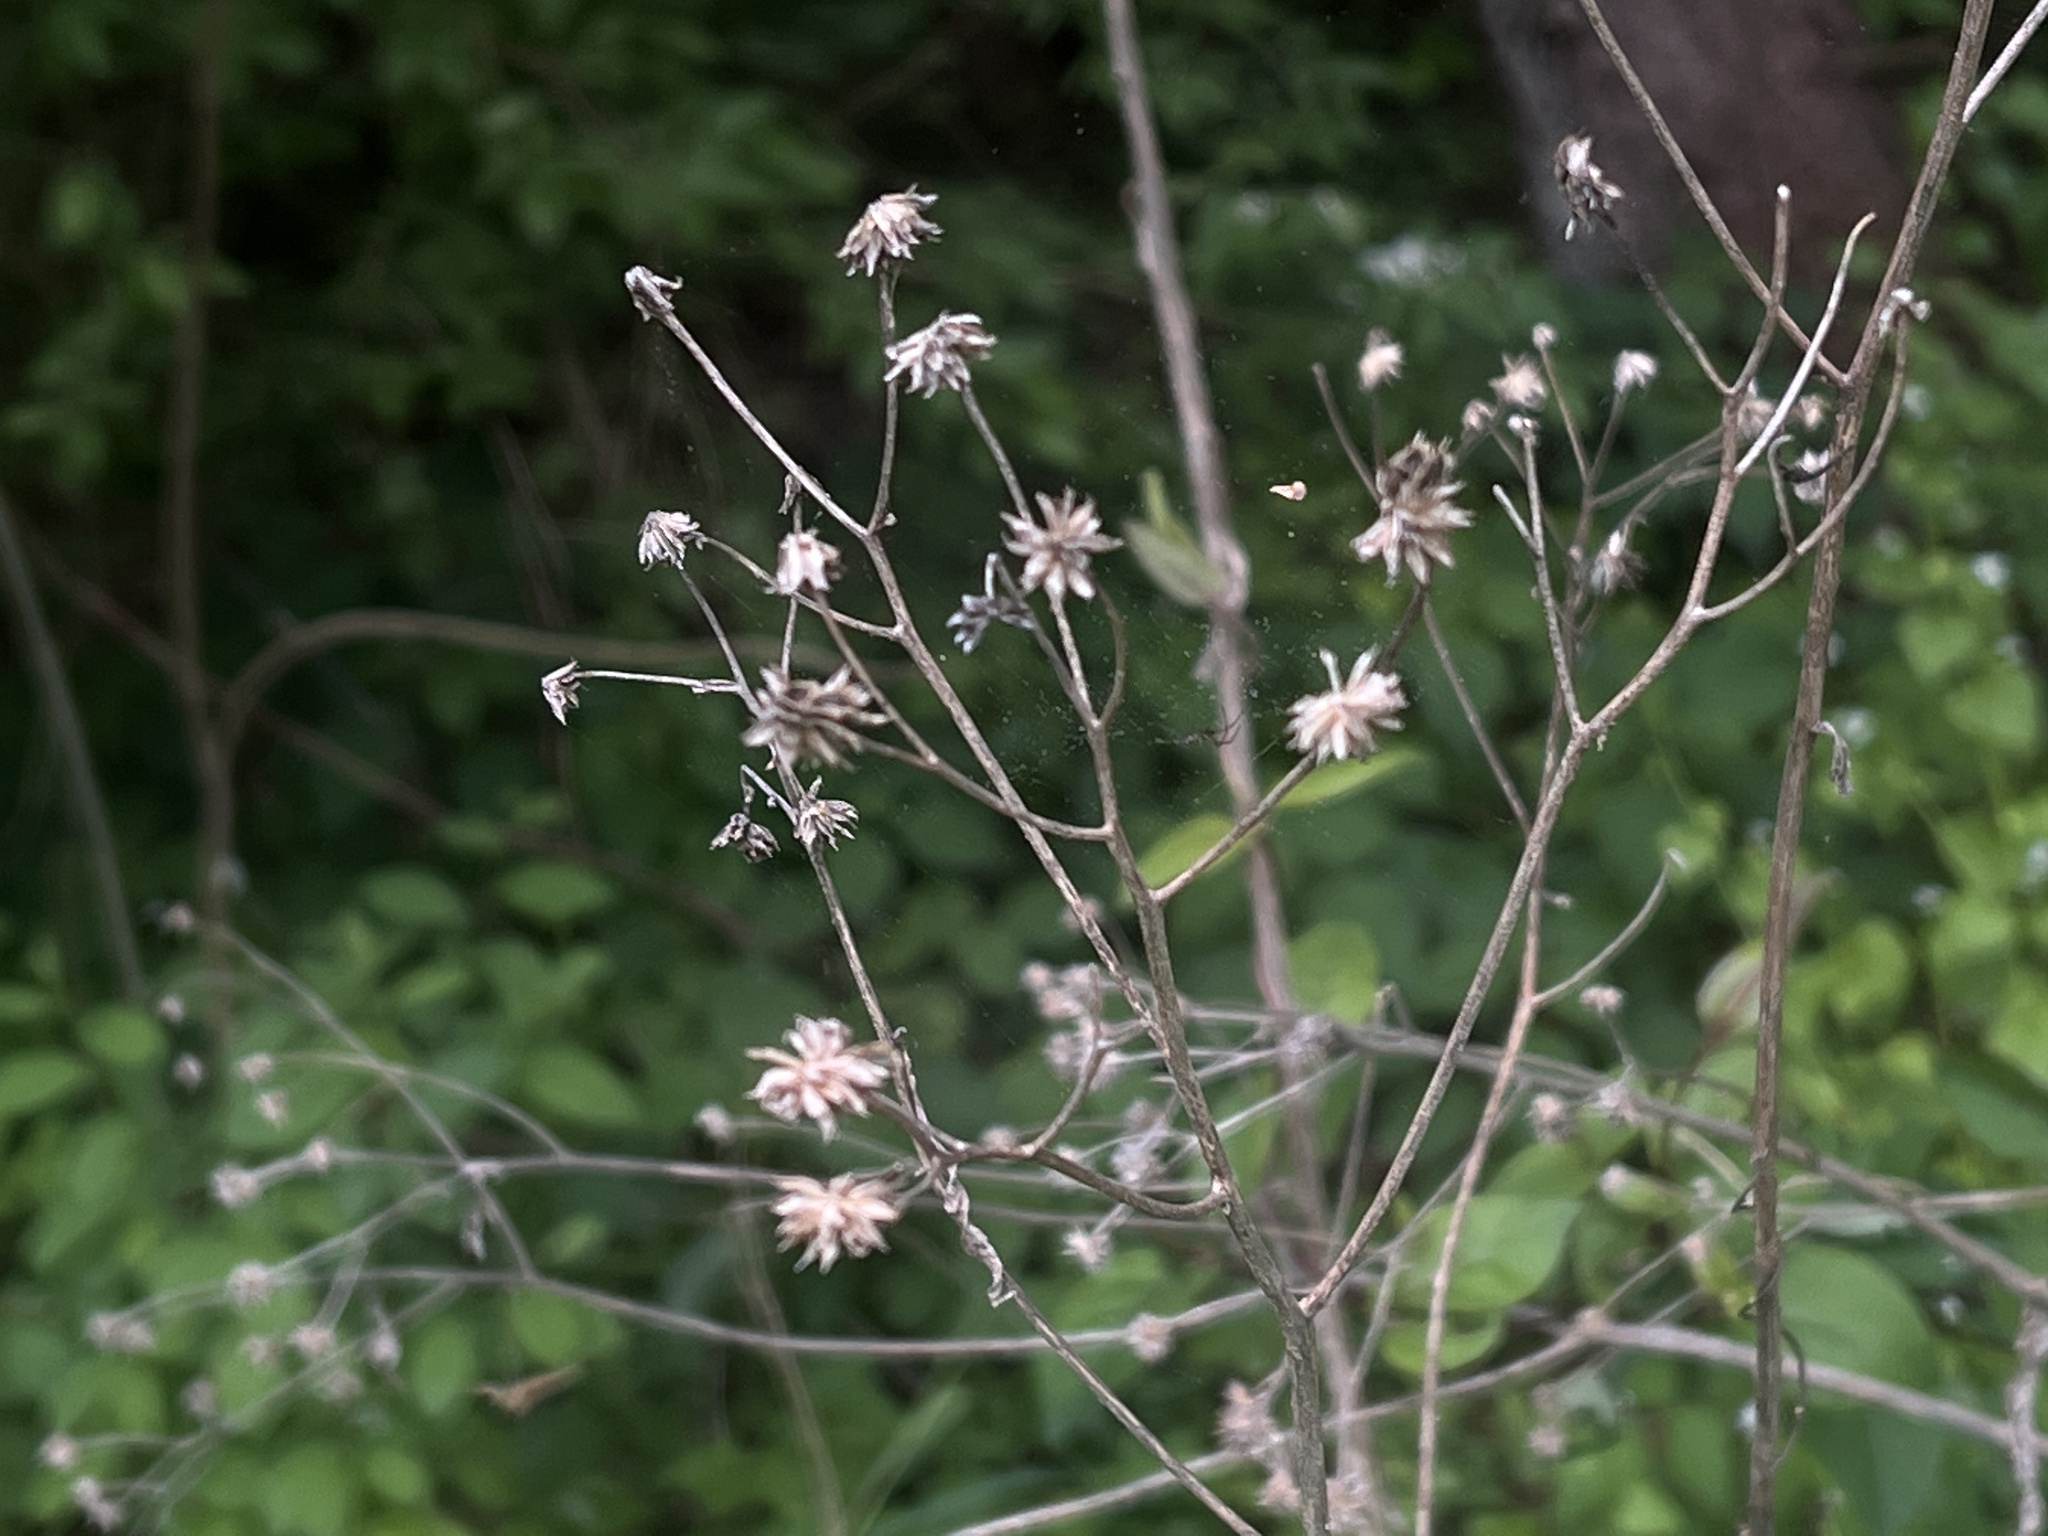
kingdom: Plantae
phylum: Tracheophyta
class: Magnoliopsida
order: Asterales
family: Asteraceae
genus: Verbesina
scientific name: Verbesina alternifolia
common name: Wingstem
